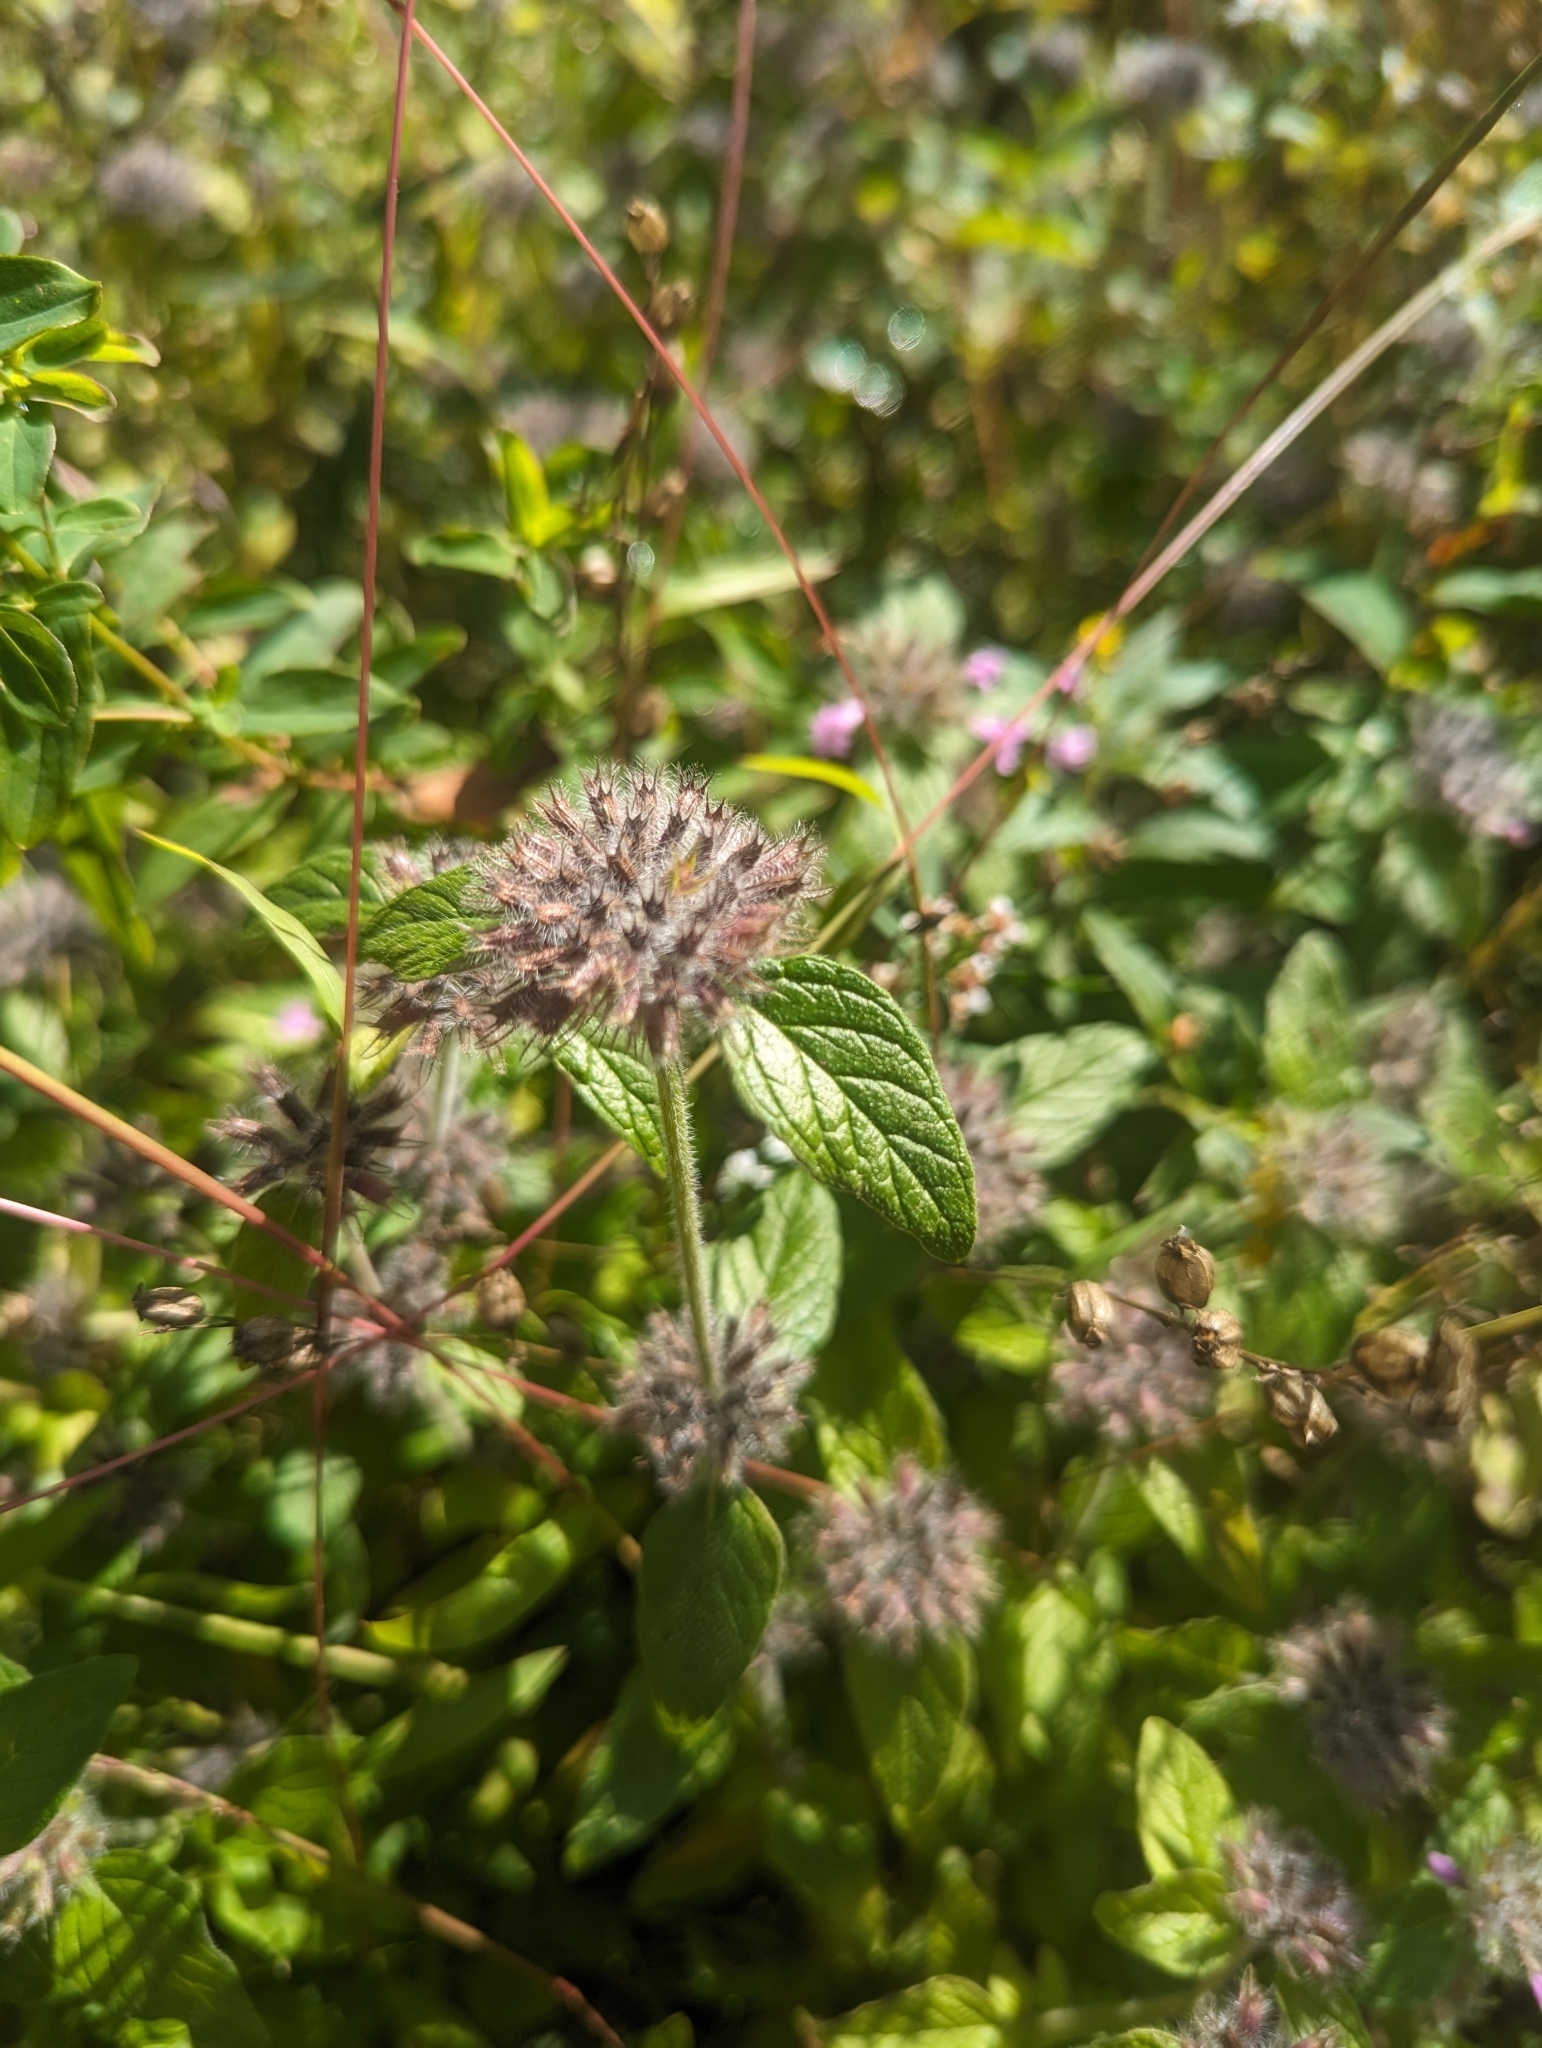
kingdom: Plantae
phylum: Tracheophyta
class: Magnoliopsida
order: Lamiales
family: Lamiaceae
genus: Clinopodium
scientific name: Clinopodium vulgare
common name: Wild basil
